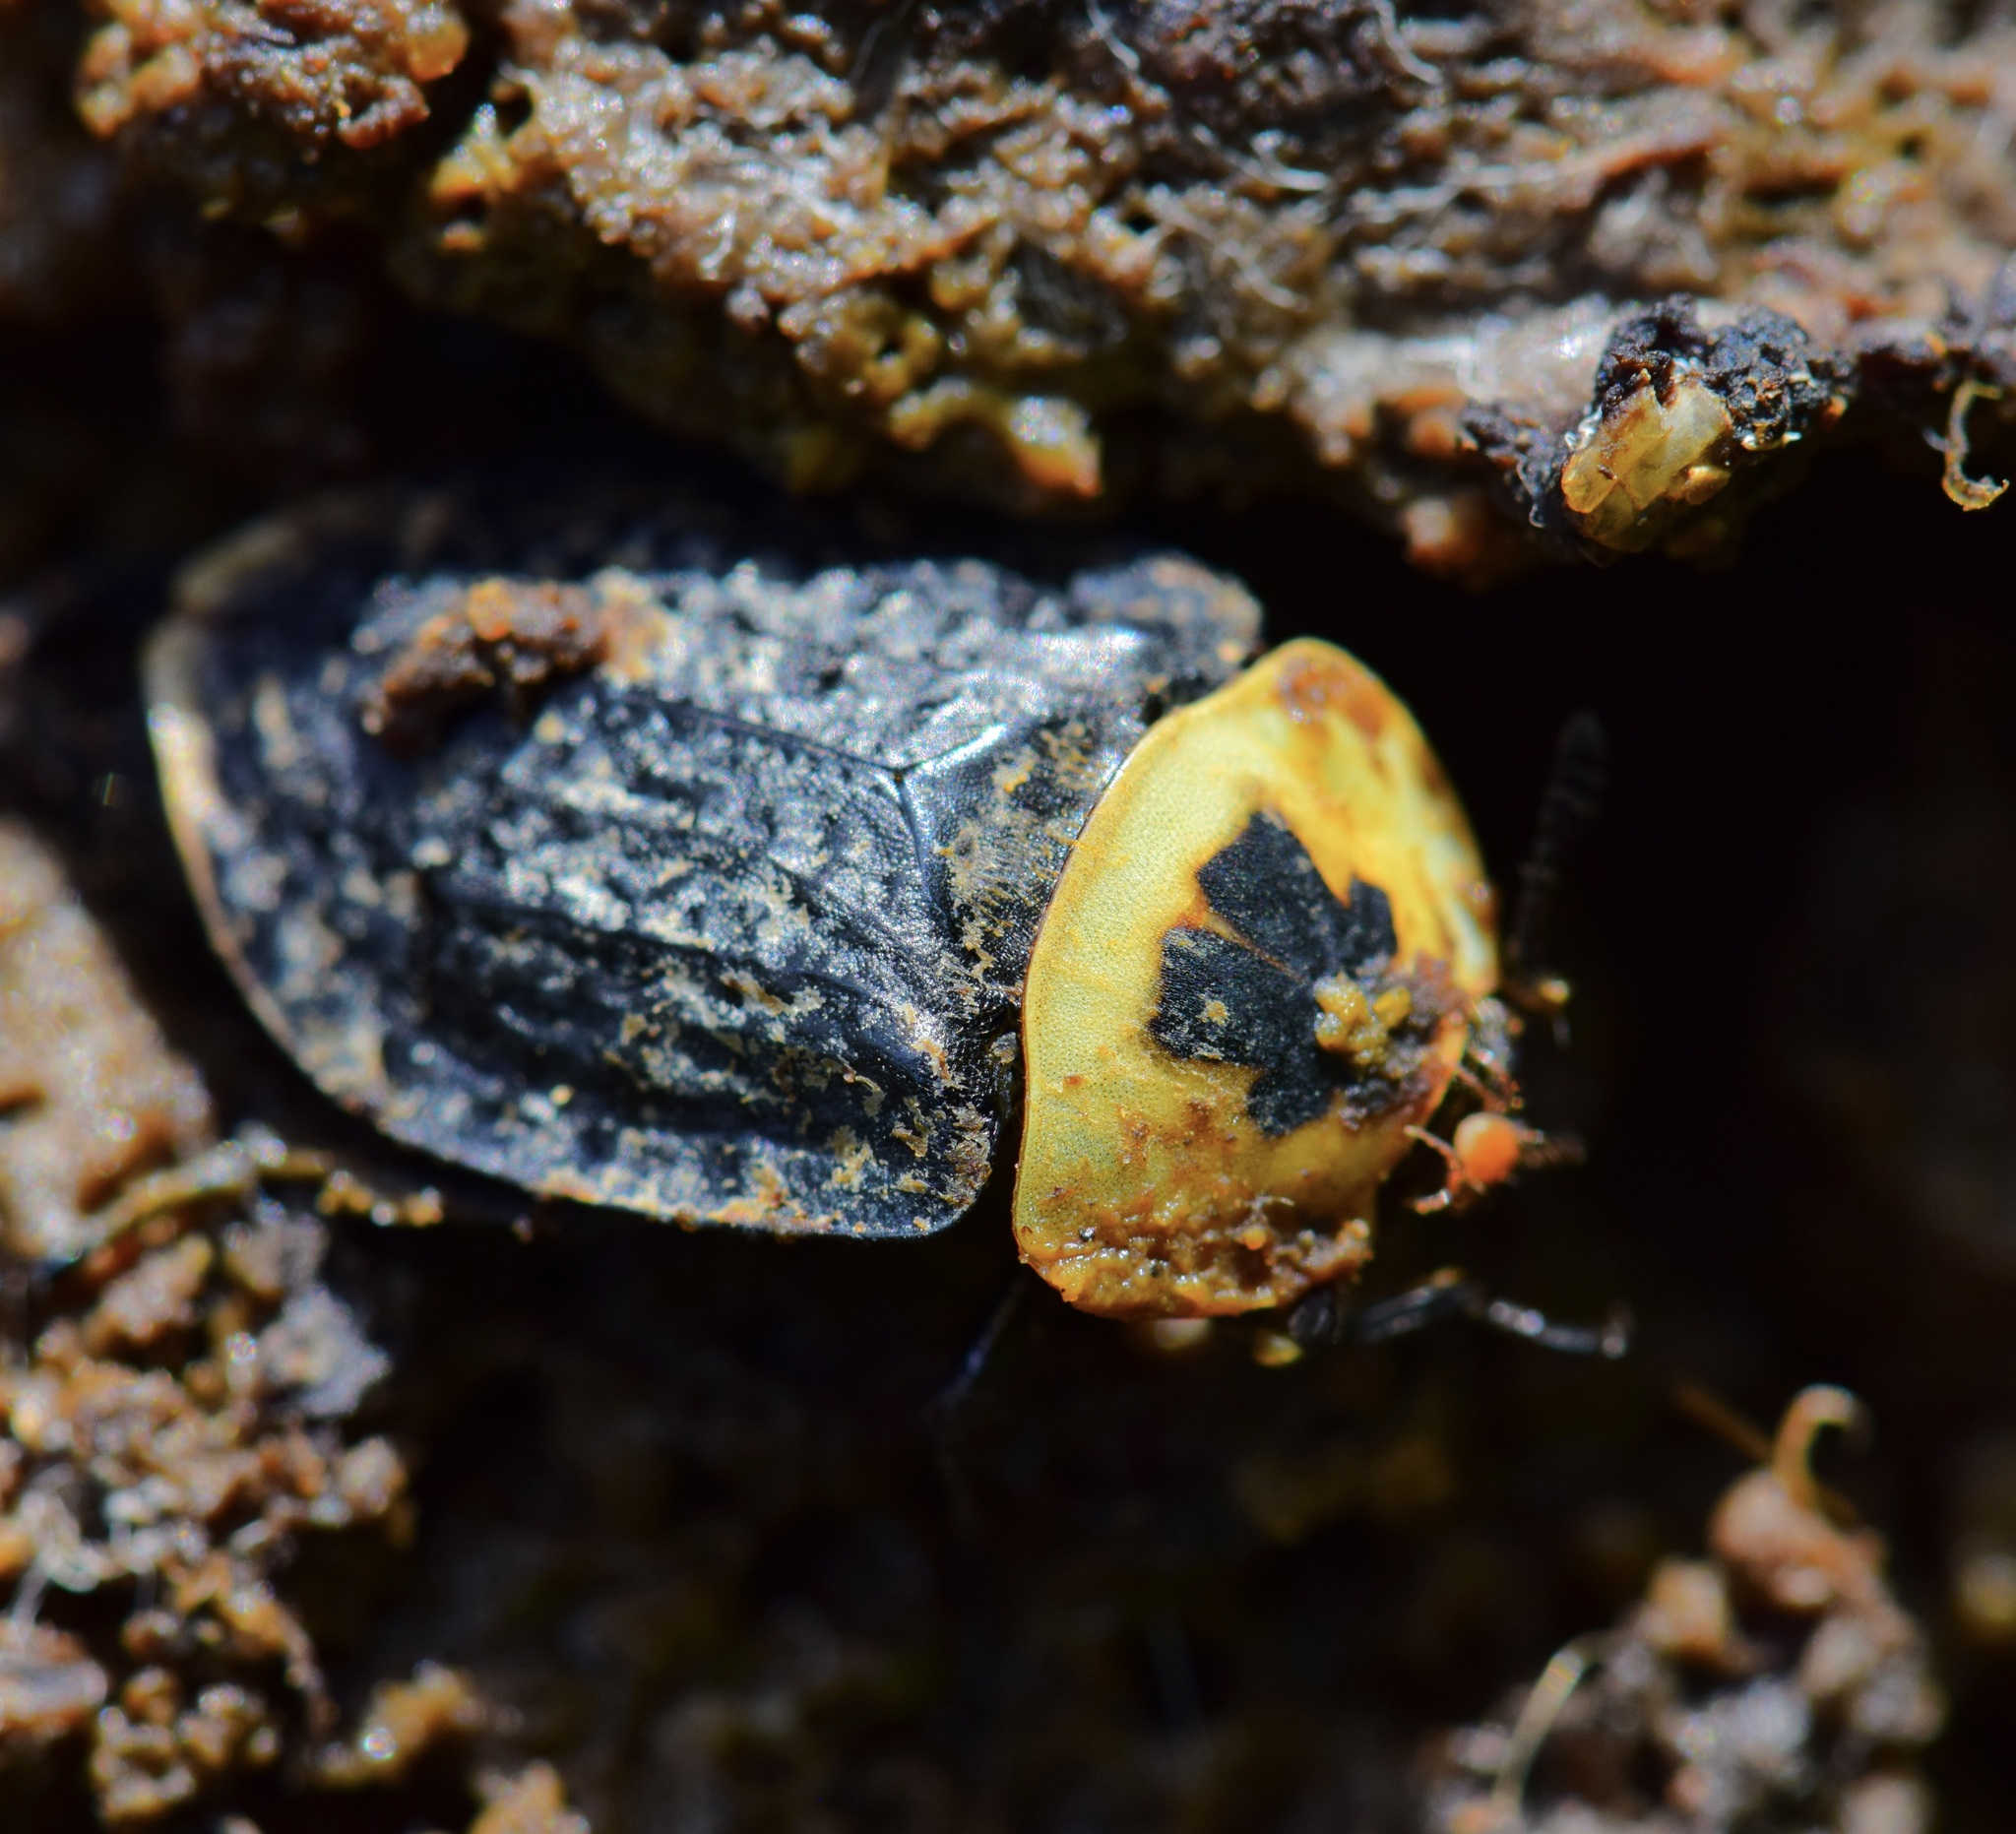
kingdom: Animalia
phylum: Arthropoda
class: Insecta
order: Coleoptera
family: Staphylinidae
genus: Necrophila
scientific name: Necrophila americana
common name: American carrion beetle
